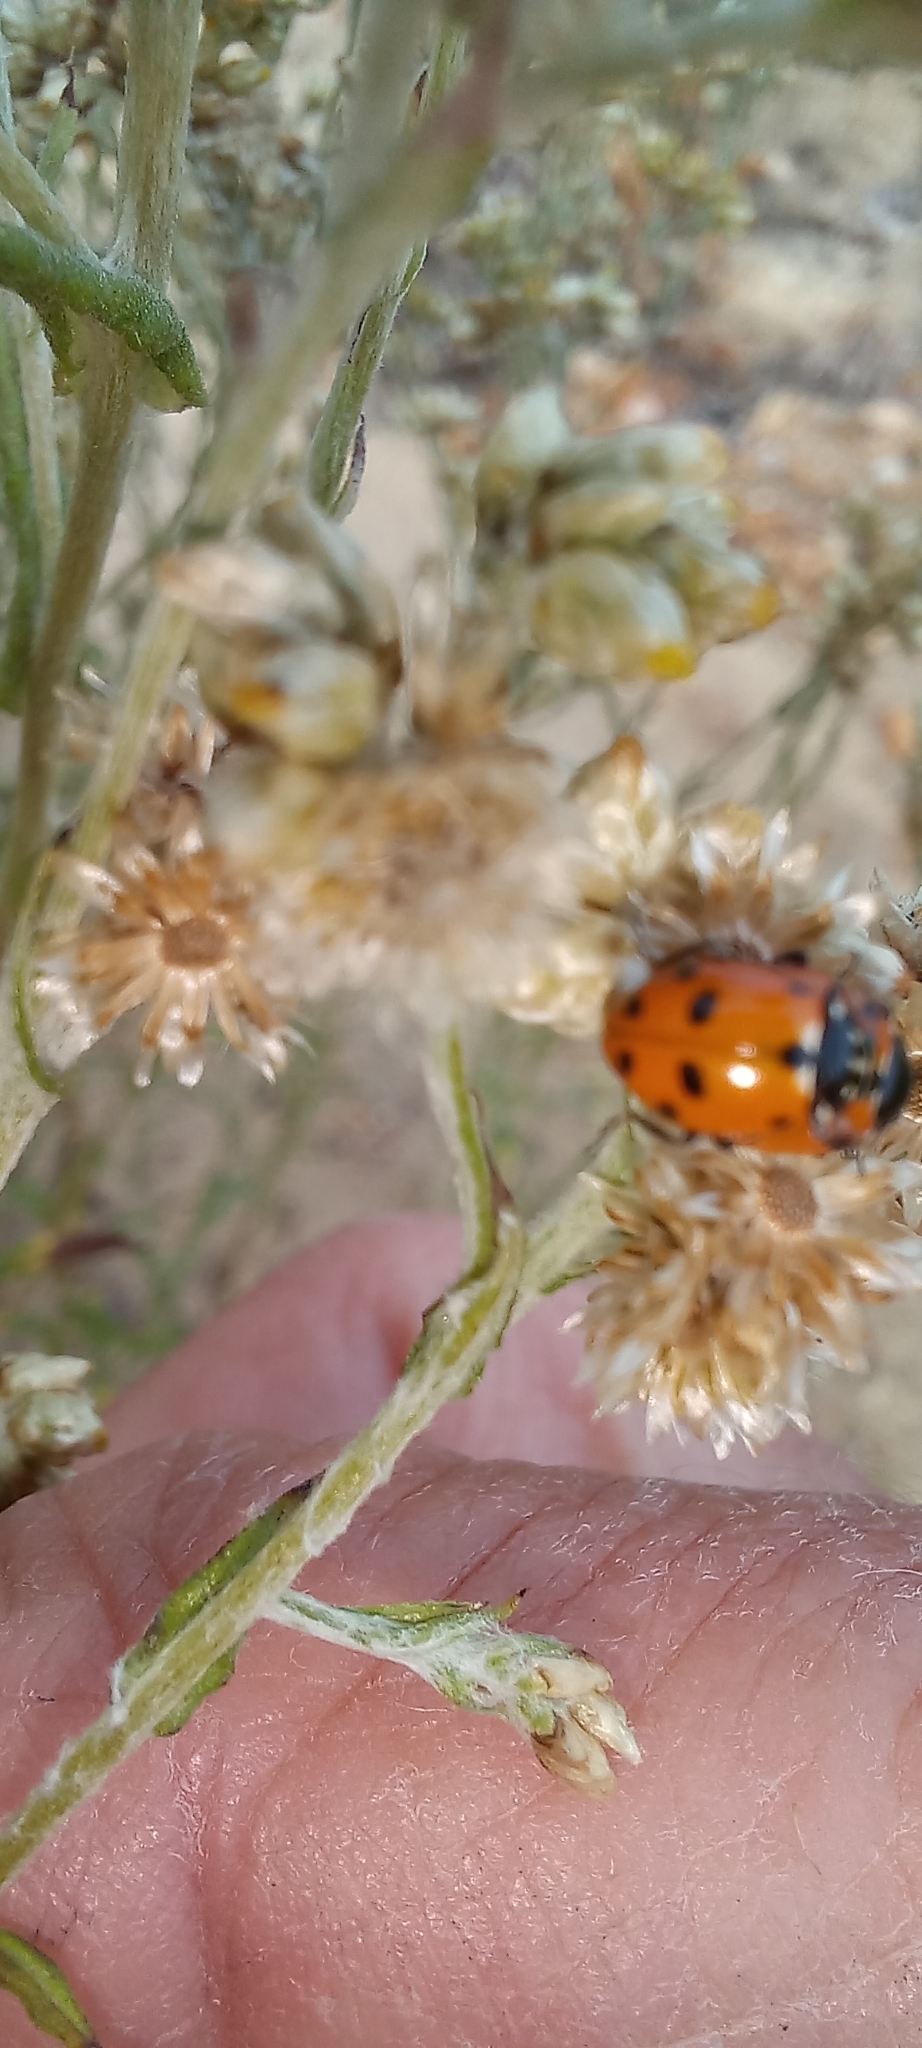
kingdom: Animalia
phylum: Arthropoda
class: Insecta
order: Coleoptera
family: Coccinellidae
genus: Hippodamia
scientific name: Hippodamia variegata
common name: Ladybird beetle
